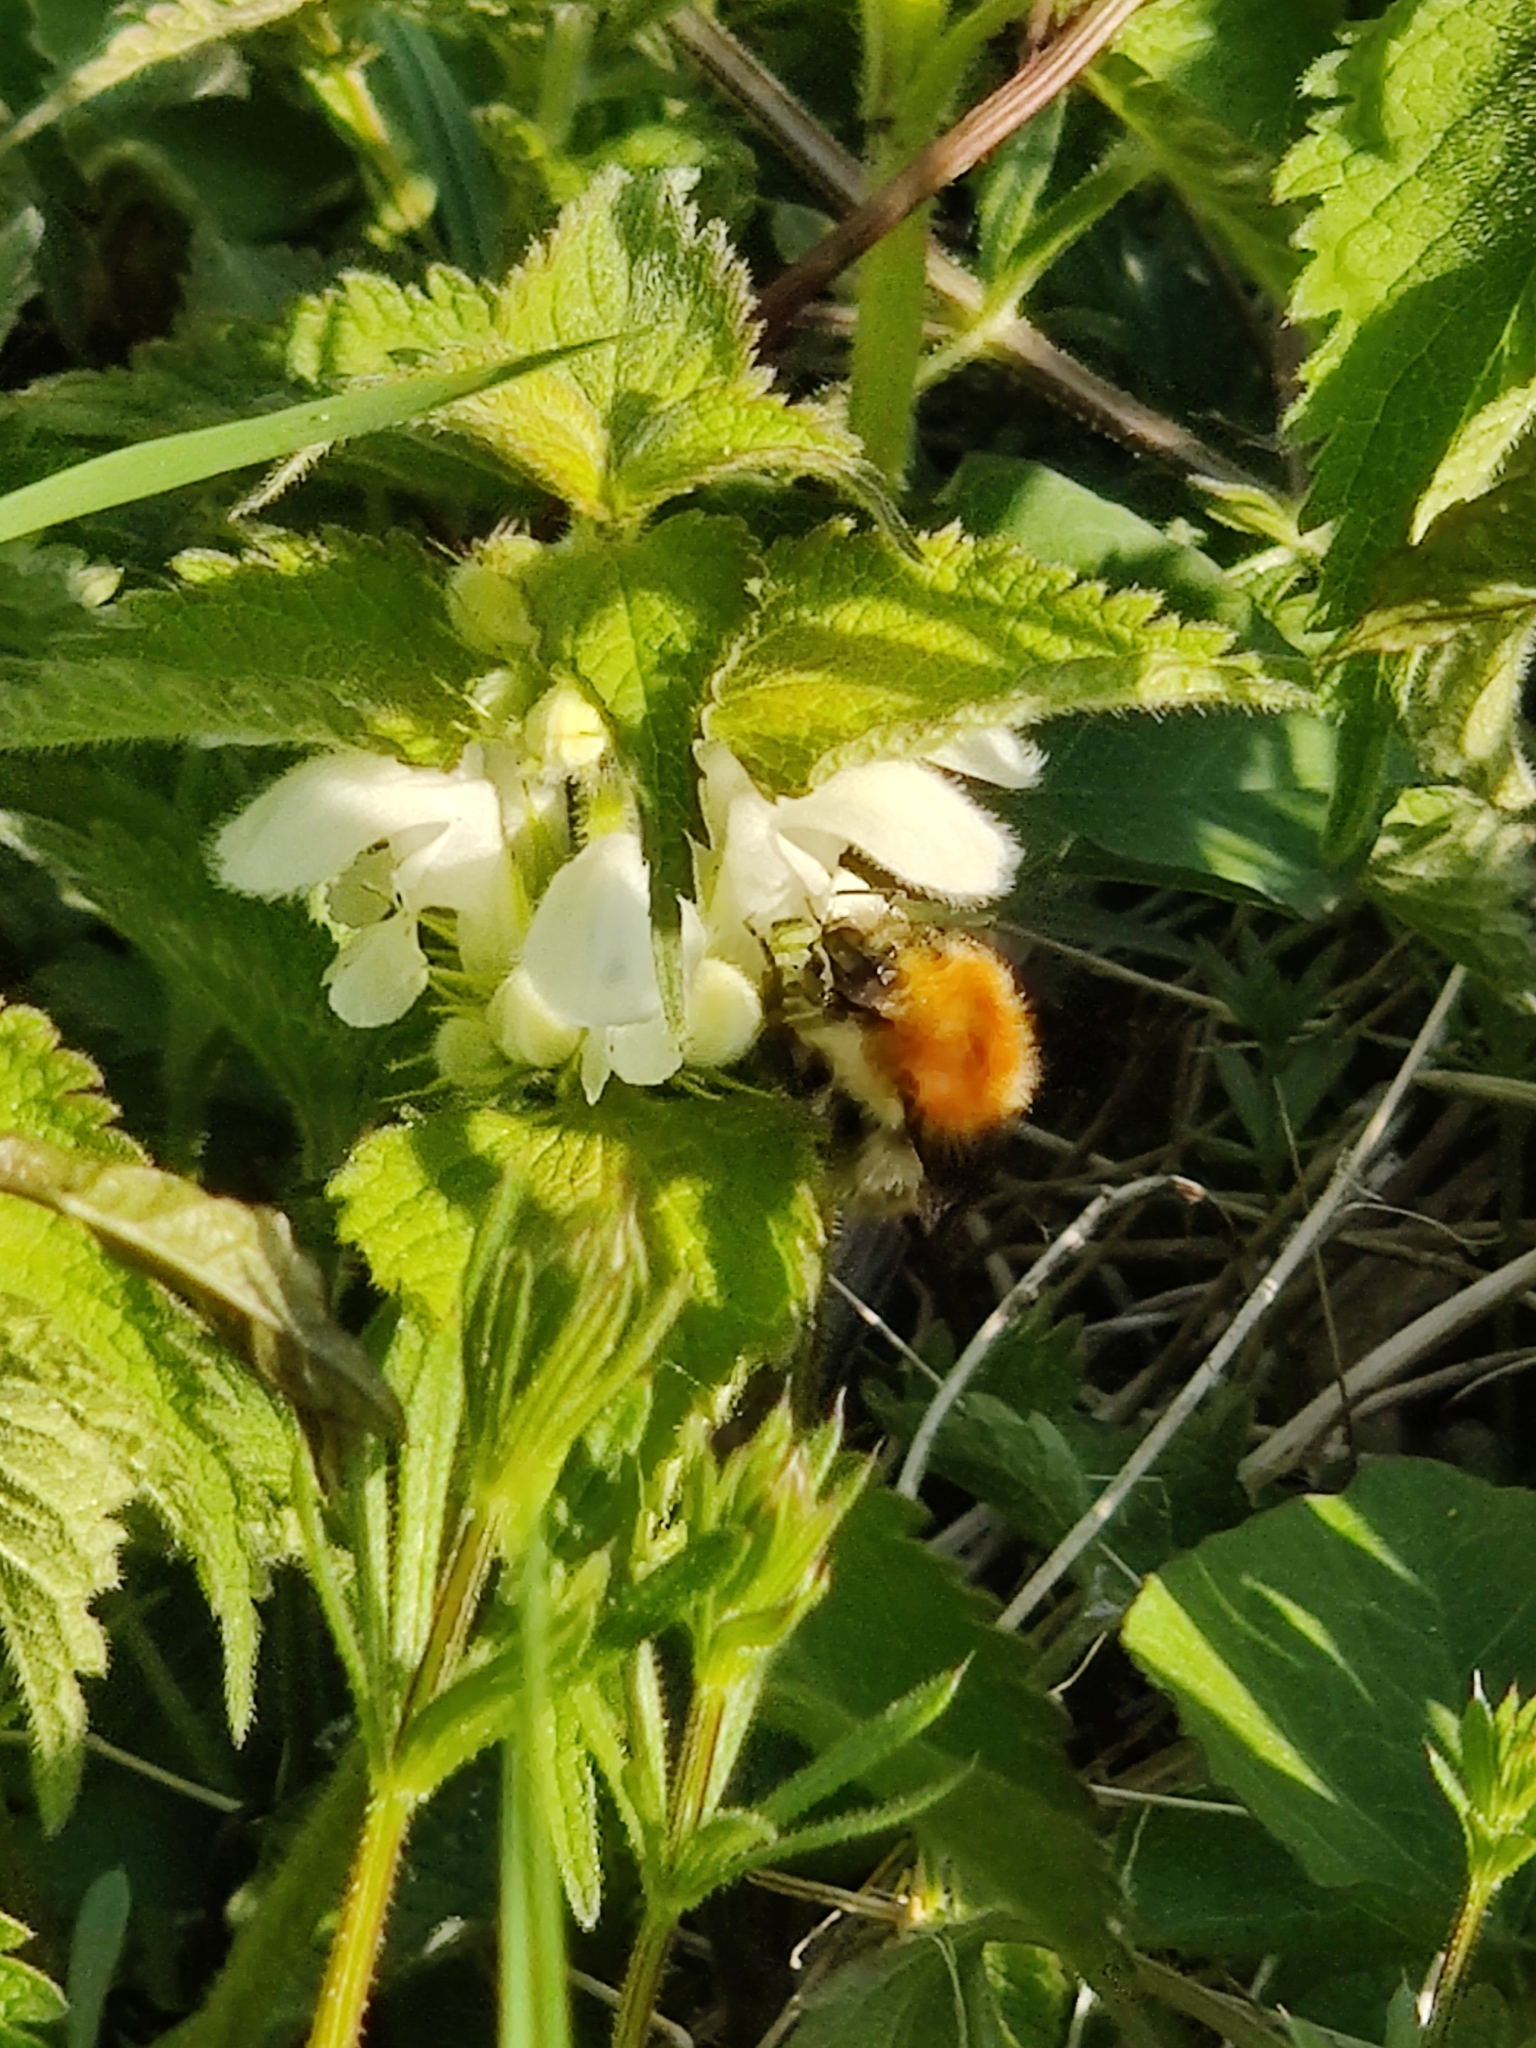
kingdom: Animalia
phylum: Arthropoda
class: Insecta
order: Hymenoptera
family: Apidae
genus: Bombus
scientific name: Bombus pascuorum
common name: Common carder bee
